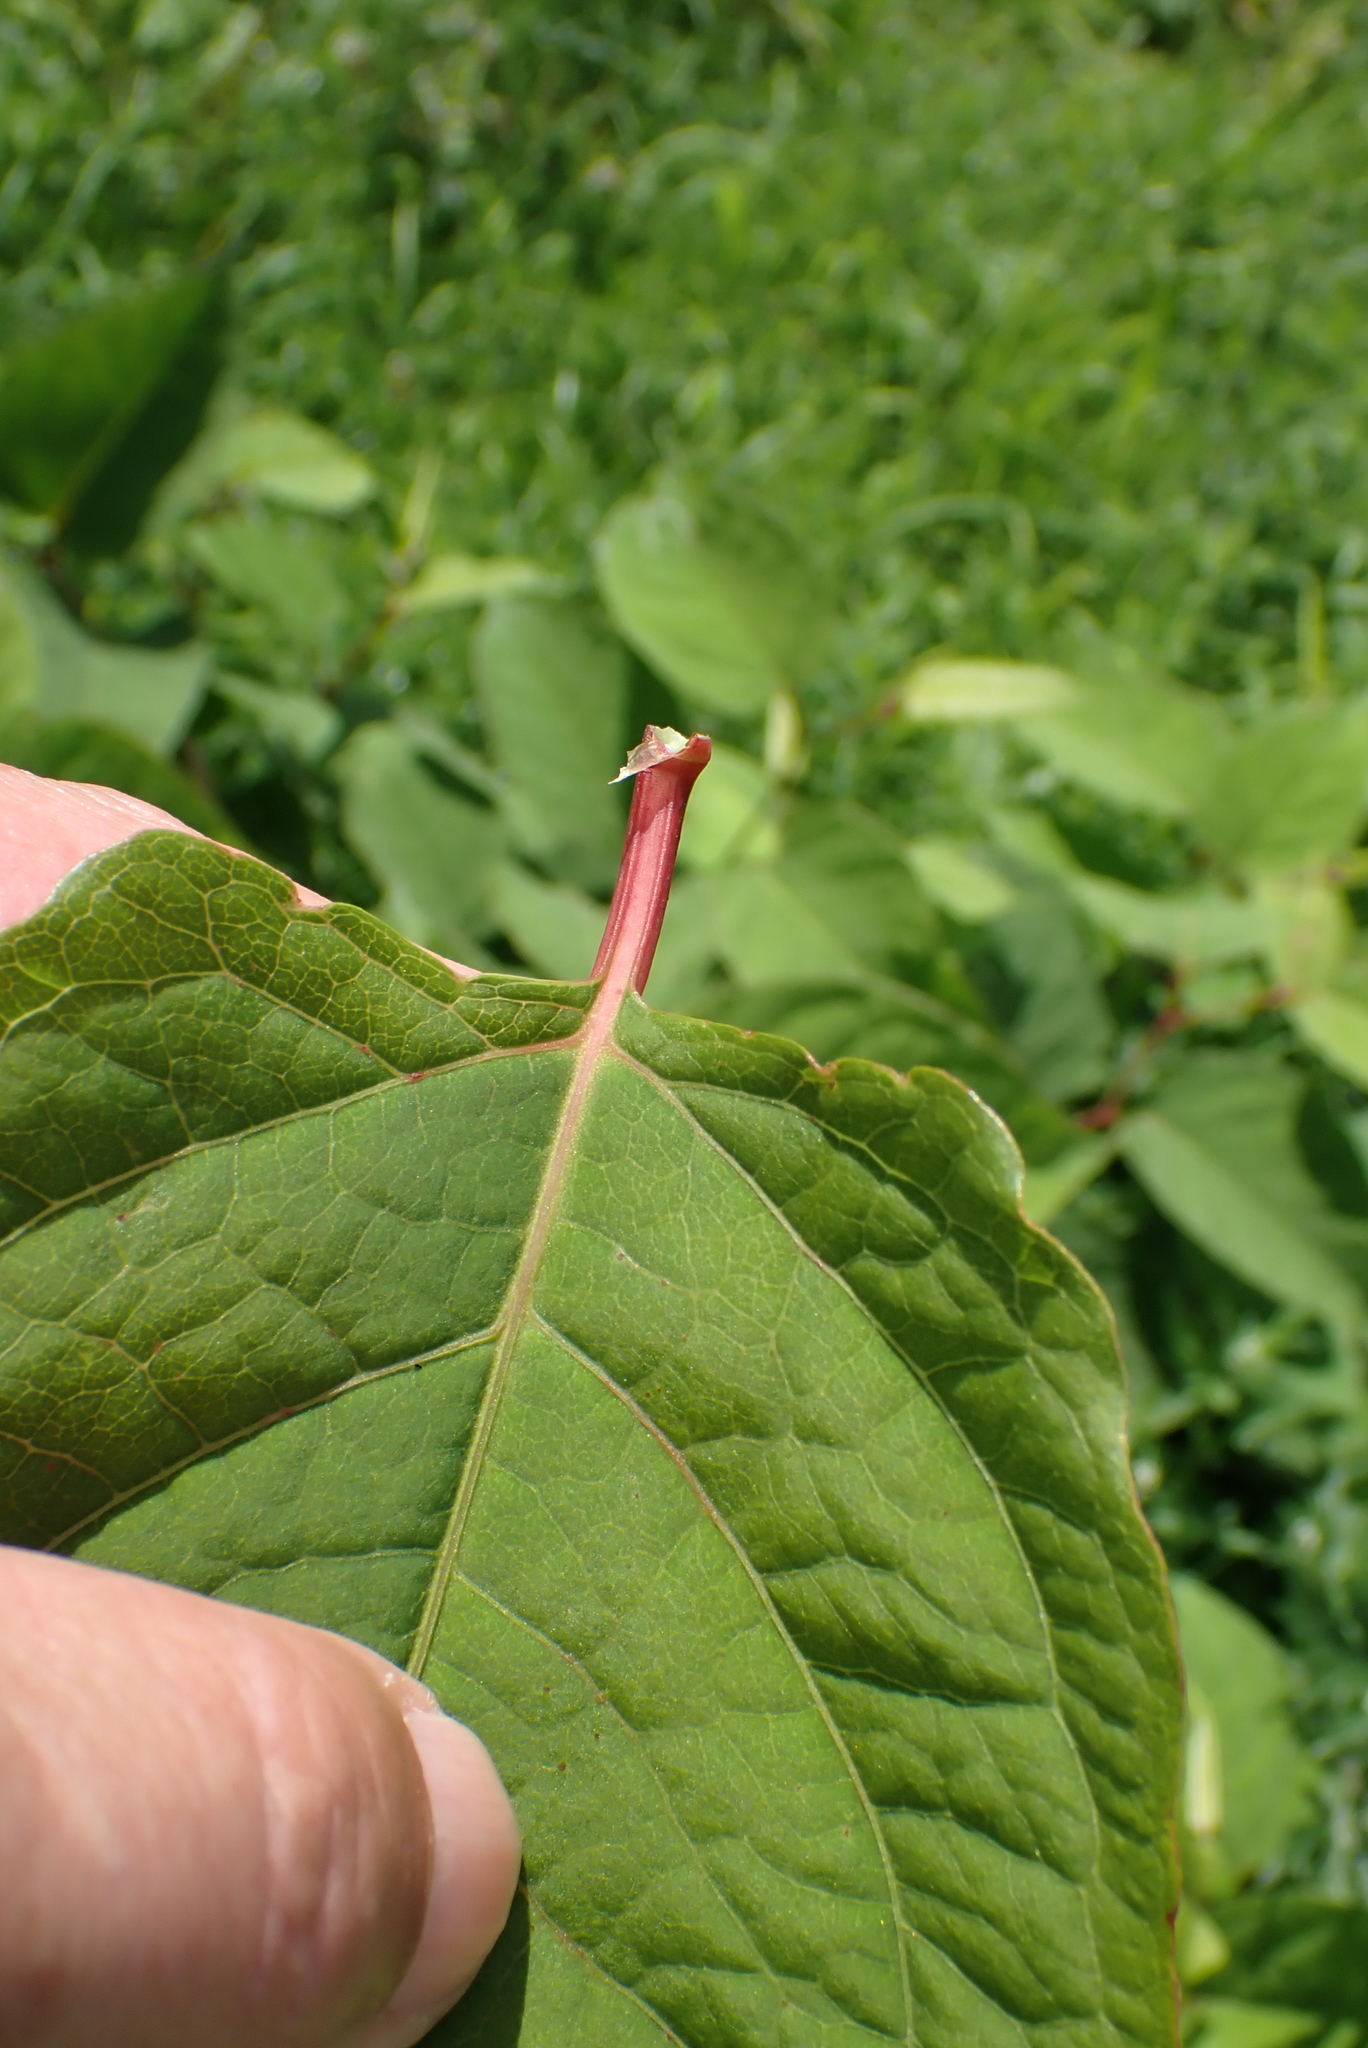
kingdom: Plantae
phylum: Tracheophyta
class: Magnoliopsida
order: Caryophyllales
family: Polygonaceae
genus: Reynoutria
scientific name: Reynoutria japonica
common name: Japanese knotweed
